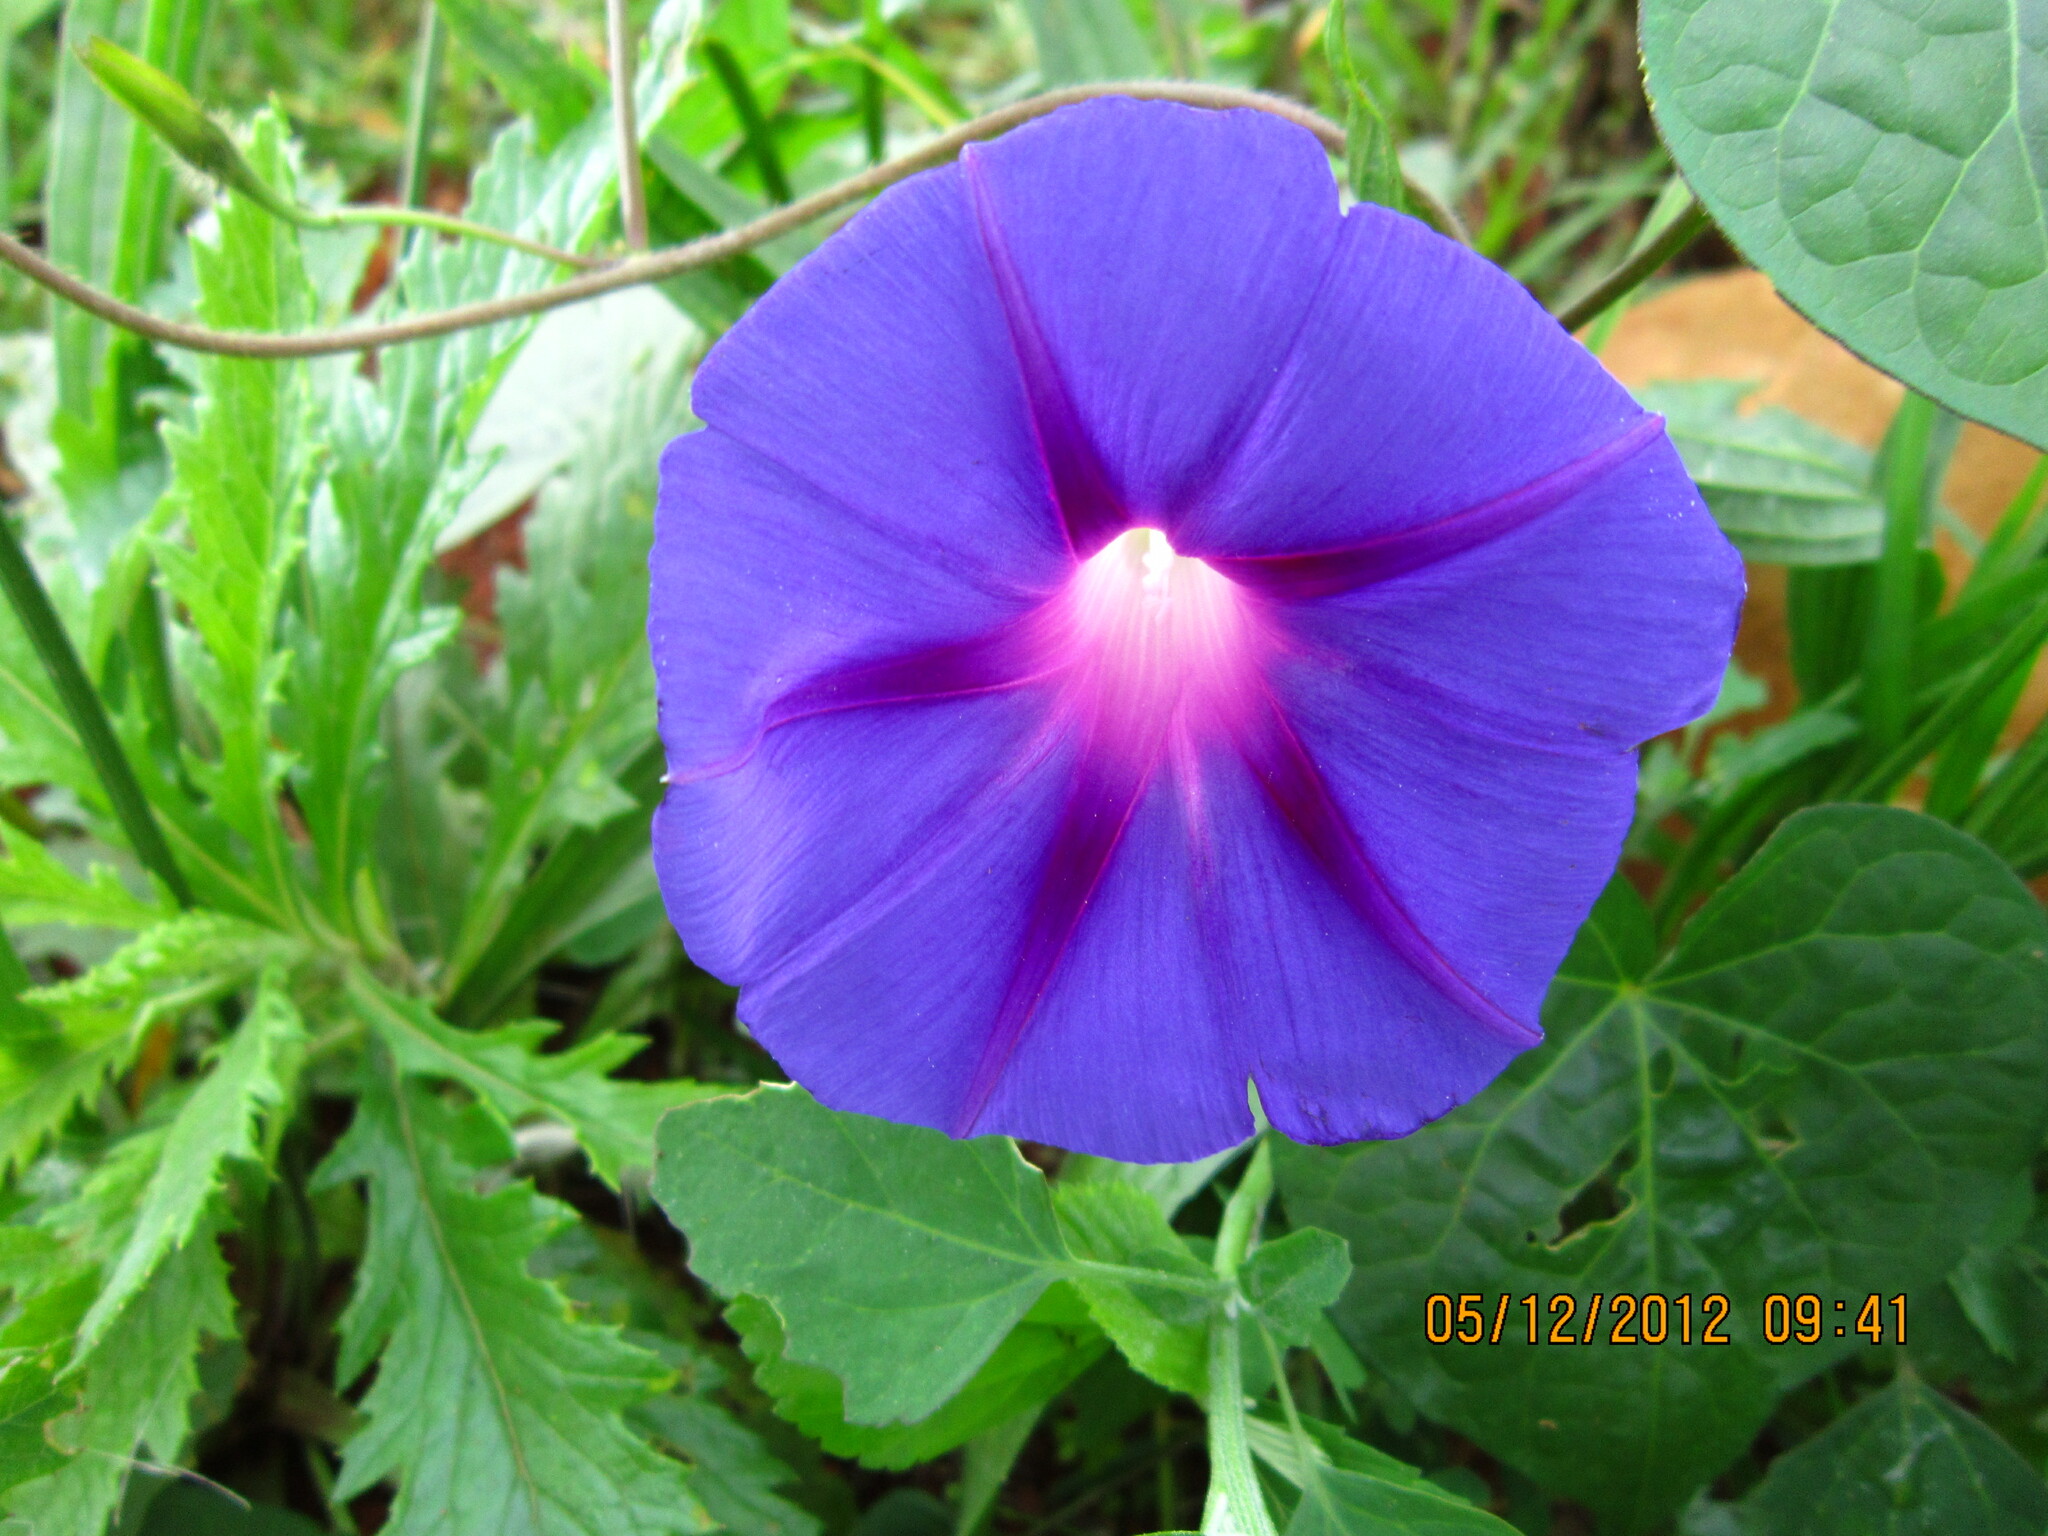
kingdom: Plantae
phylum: Tracheophyta
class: Magnoliopsida
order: Solanales
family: Convolvulaceae
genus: Ipomoea
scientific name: Ipomoea purpurea
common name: Common morning-glory
